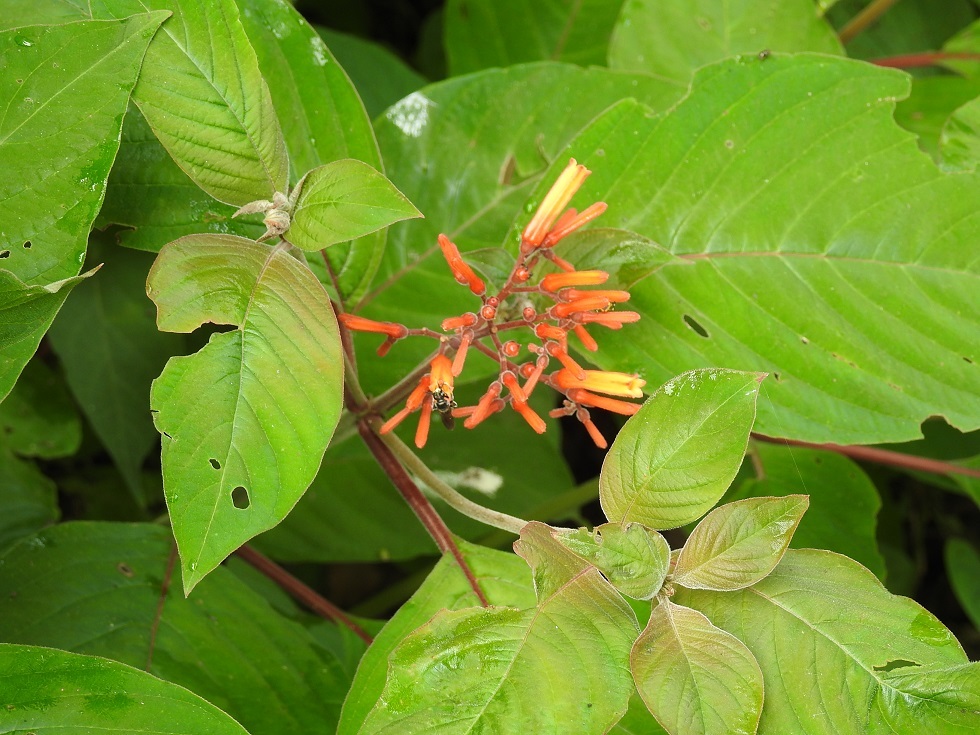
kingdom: Plantae
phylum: Tracheophyta
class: Magnoliopsida
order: Gentianales
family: Rubiaceae
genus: Hamelia
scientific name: Hamelia patens
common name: Redhead
